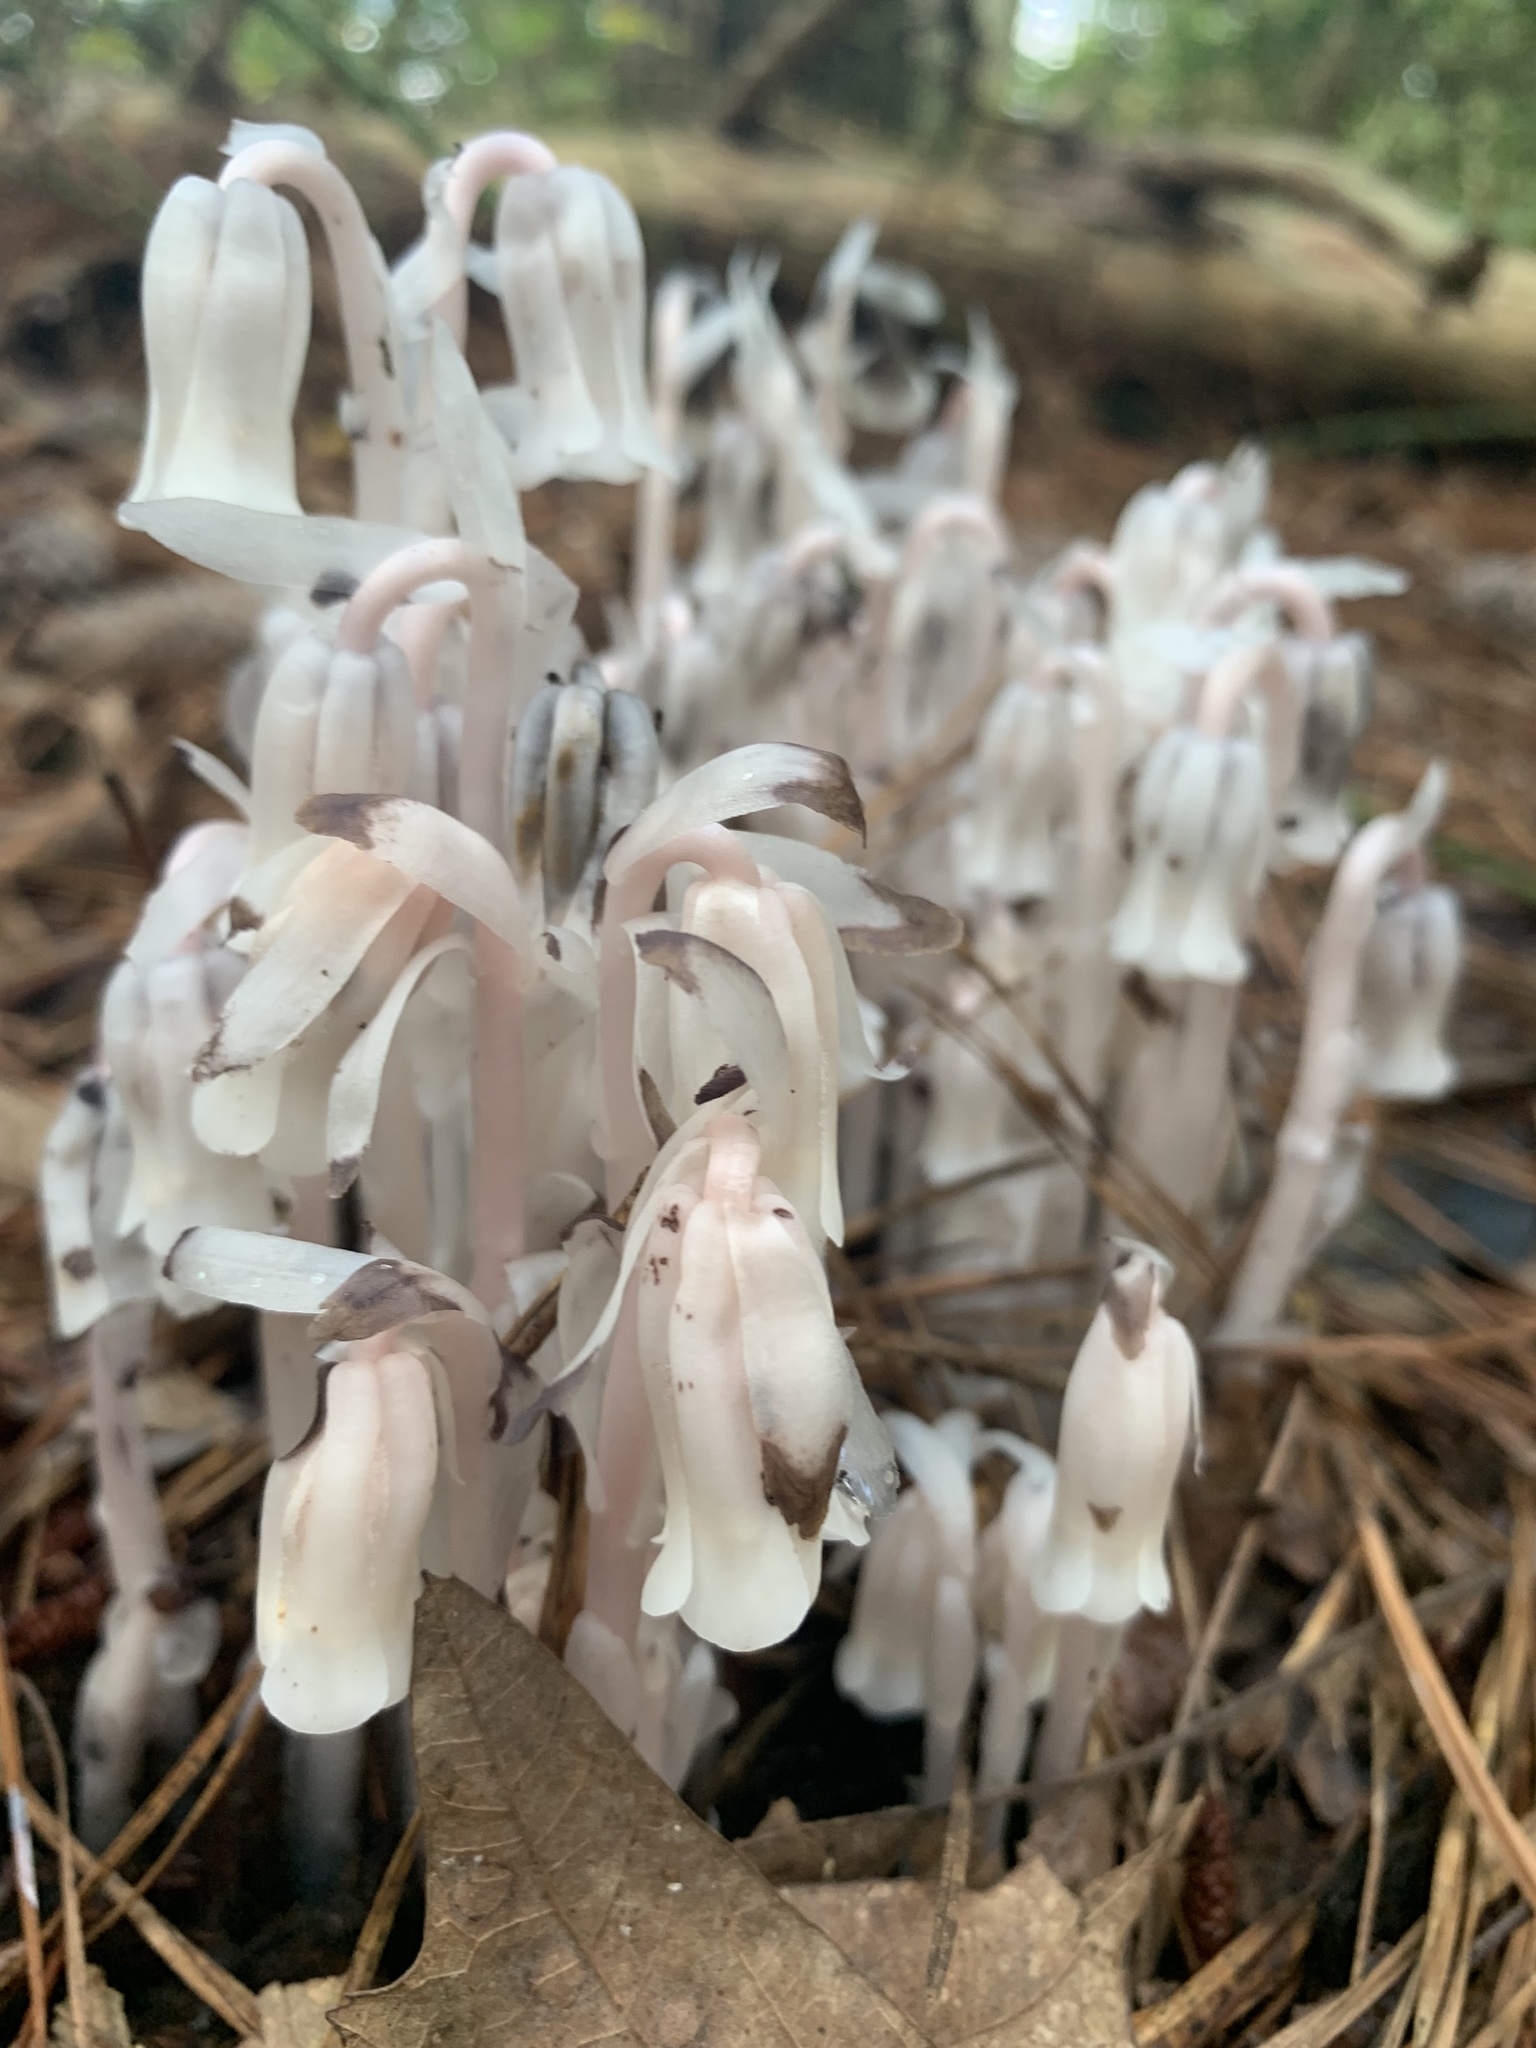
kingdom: Plantae
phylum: Tracheophyta
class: Magnoliopsida
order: Ericales
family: Ericaceae
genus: Monotropa
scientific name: Monotropa uniflora
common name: Convulsion root
